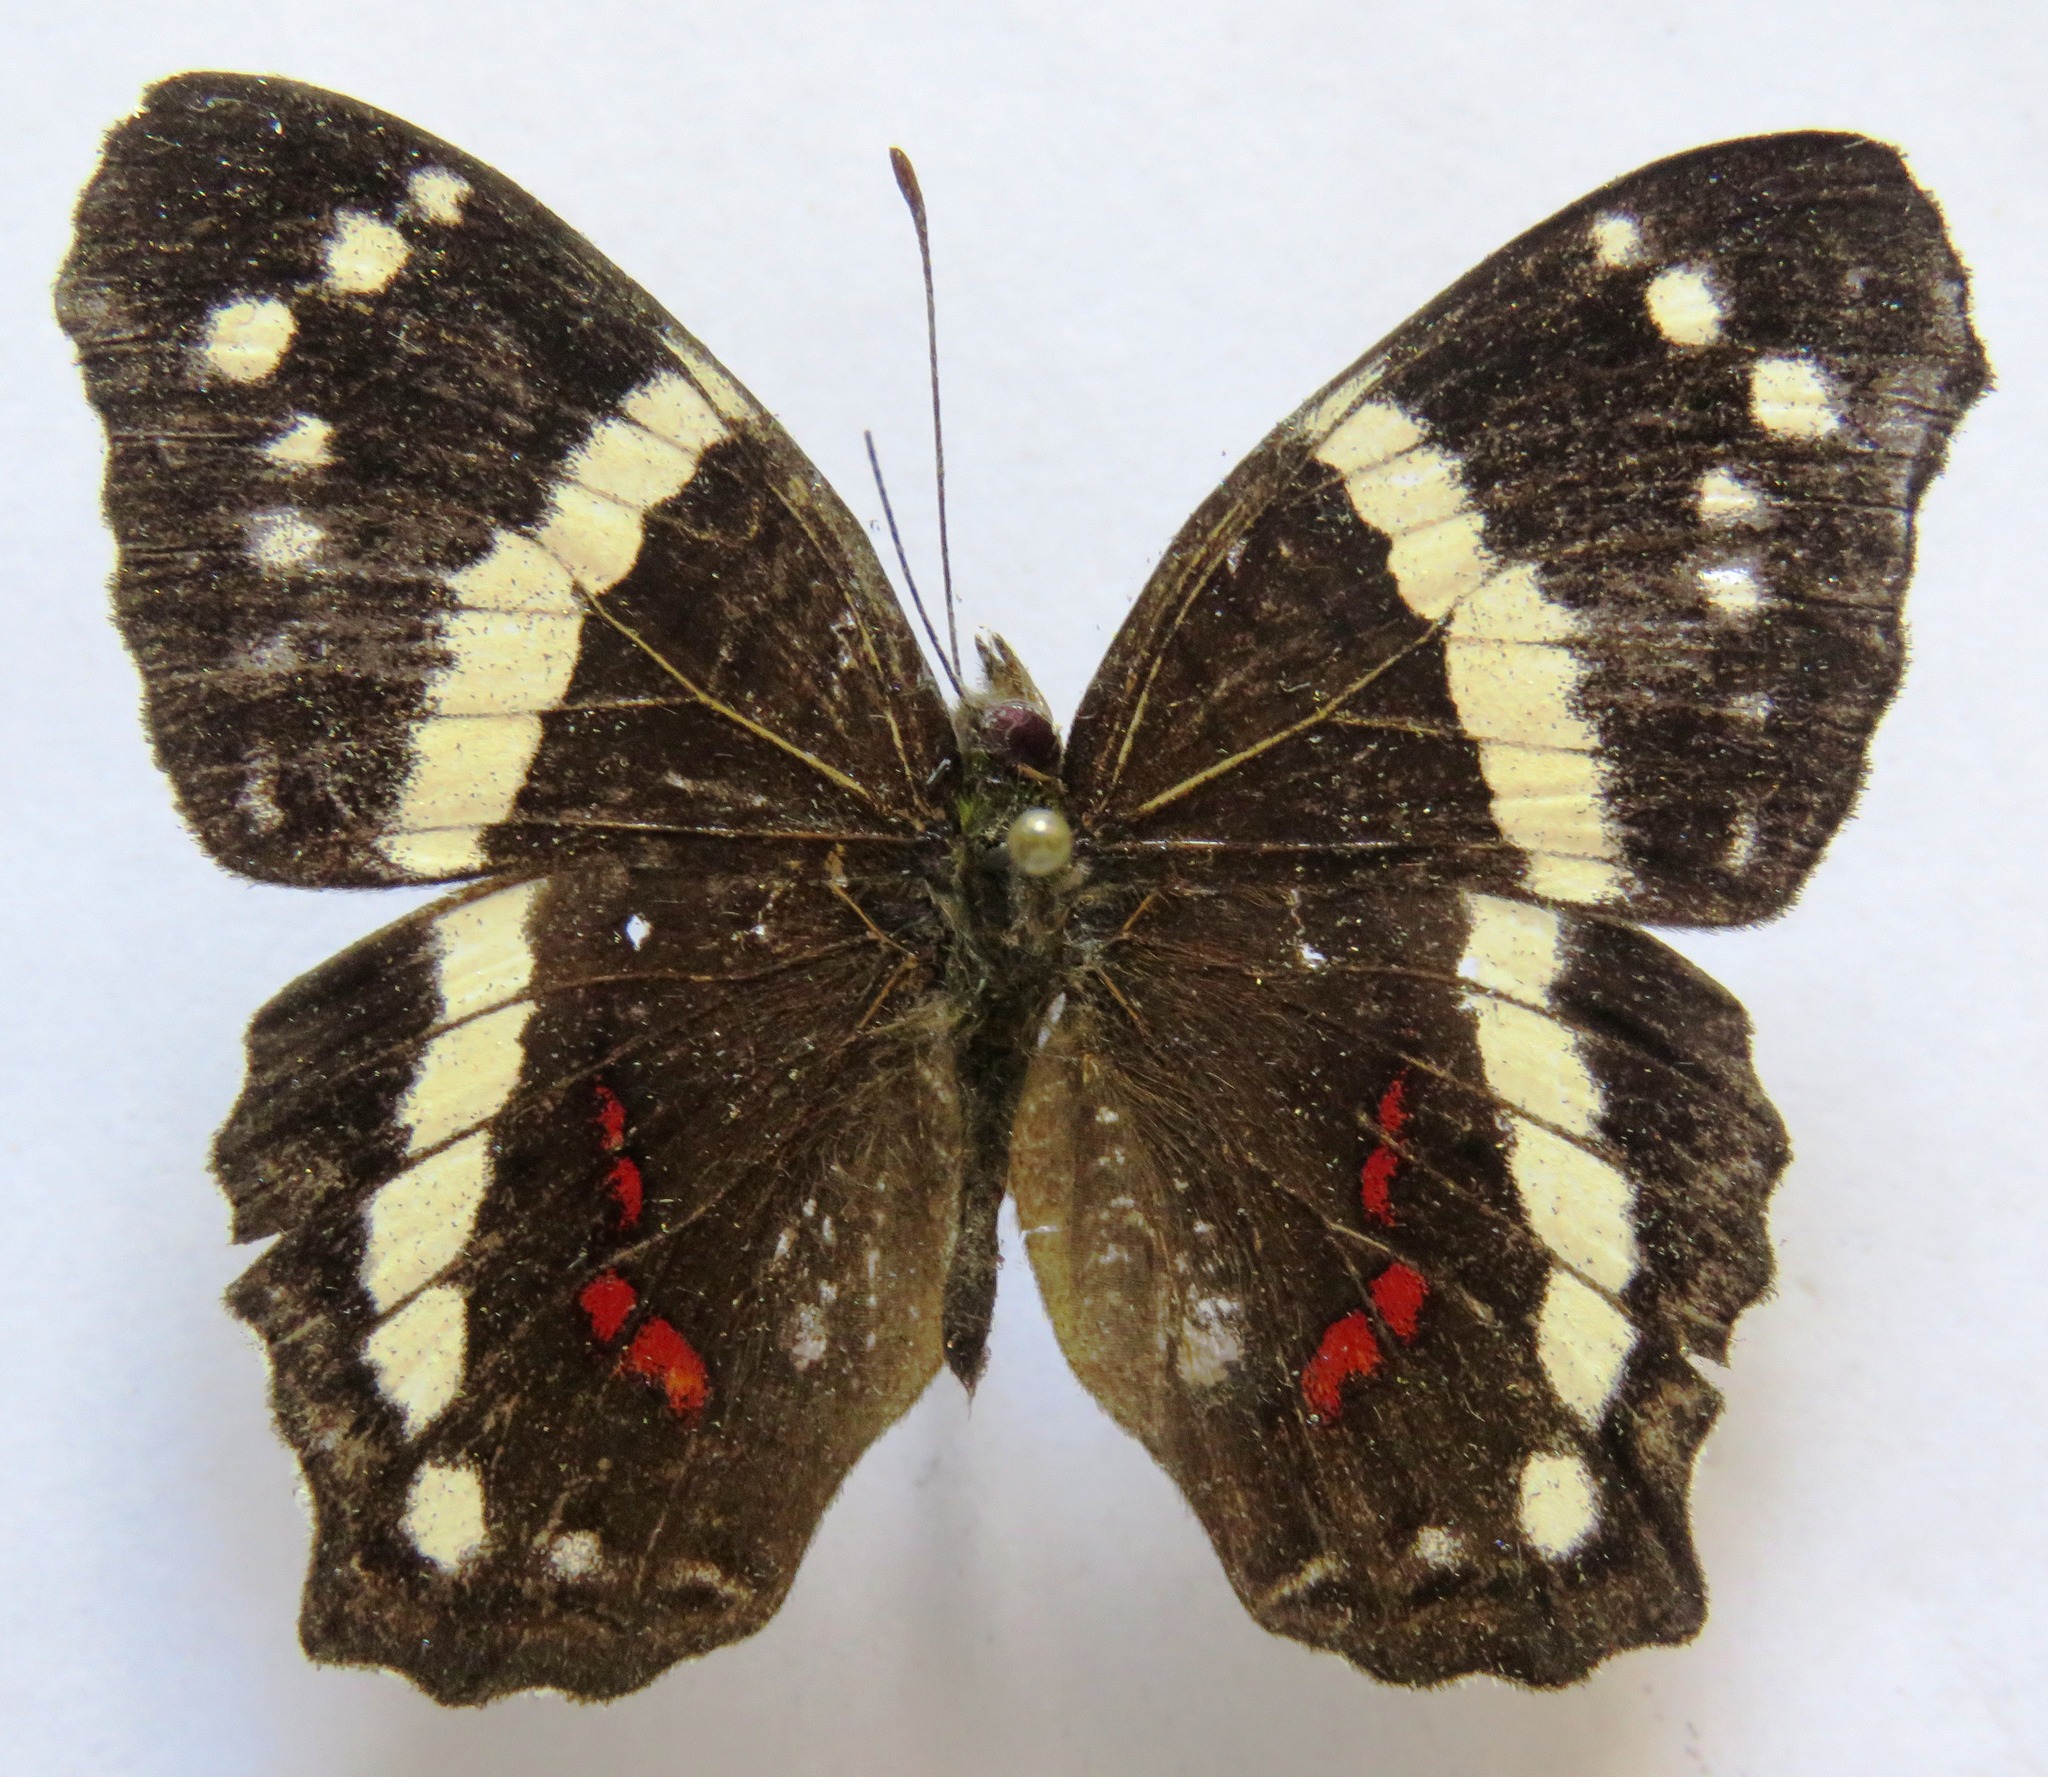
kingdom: Animalia
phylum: Arthropoda
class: Insecta
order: Lepidoptera
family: Nymphalidae
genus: Anartia
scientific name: Anartia fatima
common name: Banded peacock
